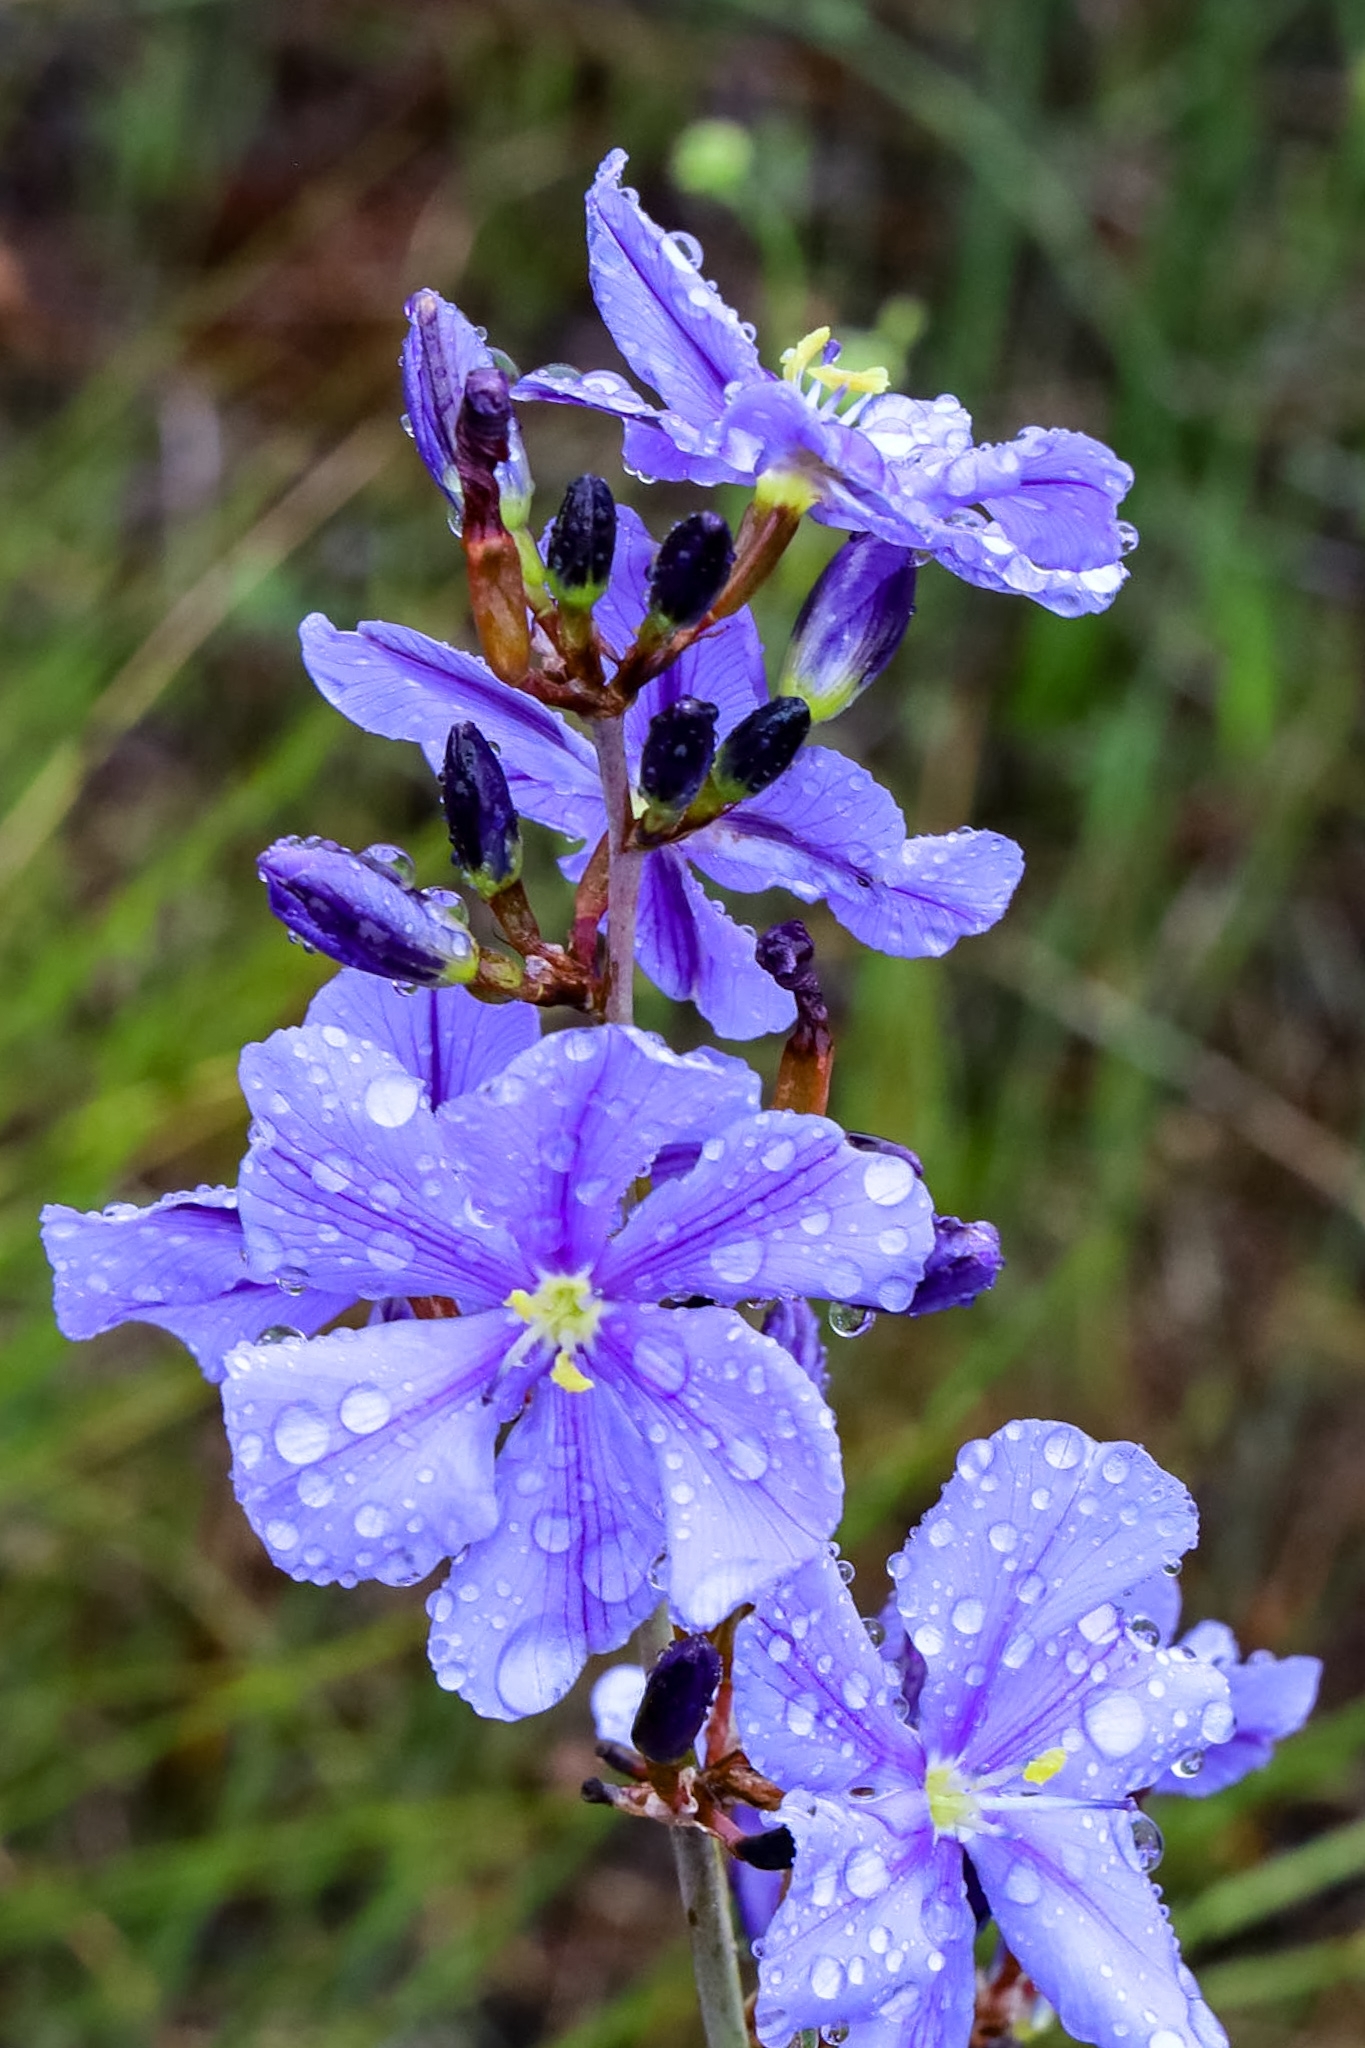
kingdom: Plantae
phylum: Tracheophyta
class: Liliopsida
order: Asparagales
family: Iridaceae
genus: Aristea
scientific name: Aristea rigidifolia
